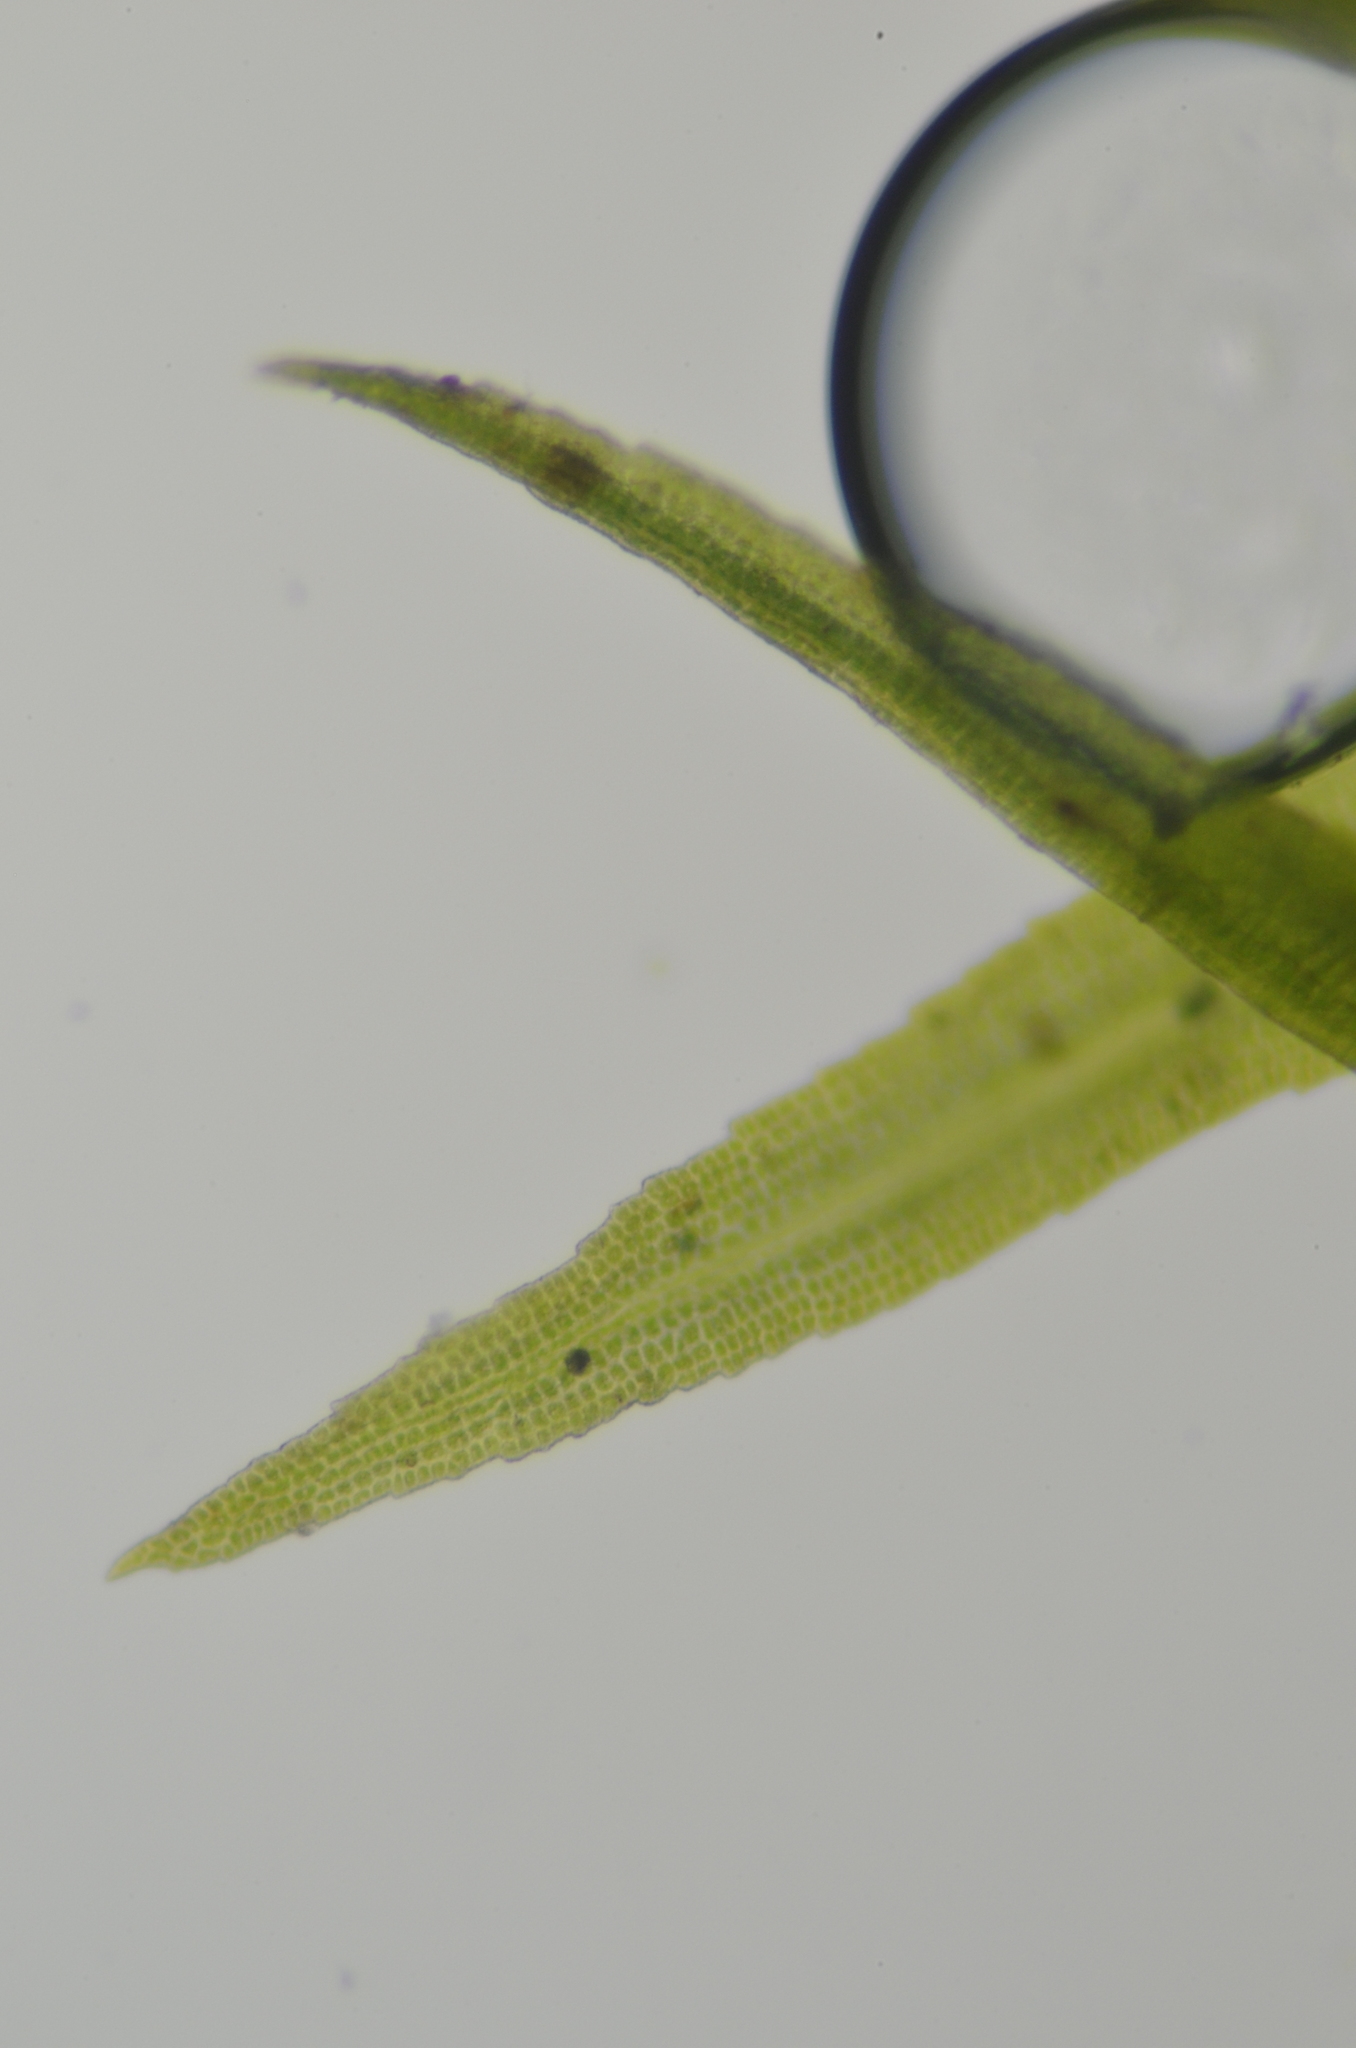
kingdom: Plantae
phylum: Bryophyta
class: Bryopsida
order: Dicranales
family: Amphidiaceae
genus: Amphidium
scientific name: Amphidium californicum
